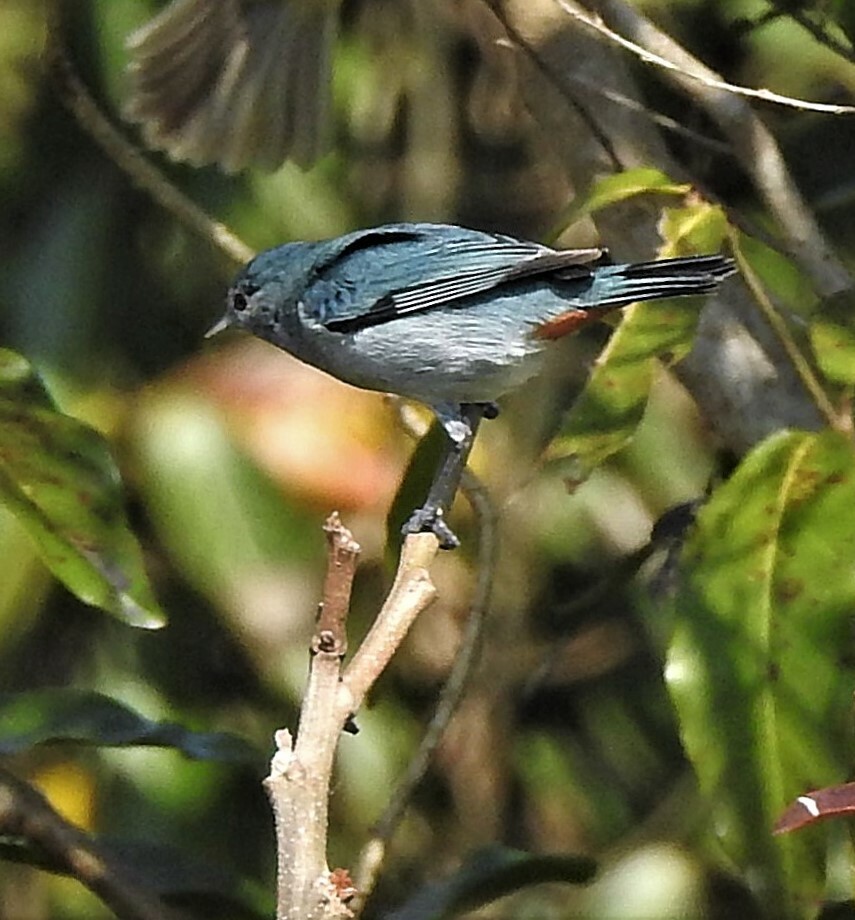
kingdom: Animalia
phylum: Chordata
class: Aves
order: Passeriformes
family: Thraupidae
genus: Conirostrum
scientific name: Conirostrum speciosum
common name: Chestnut-vented conebill
